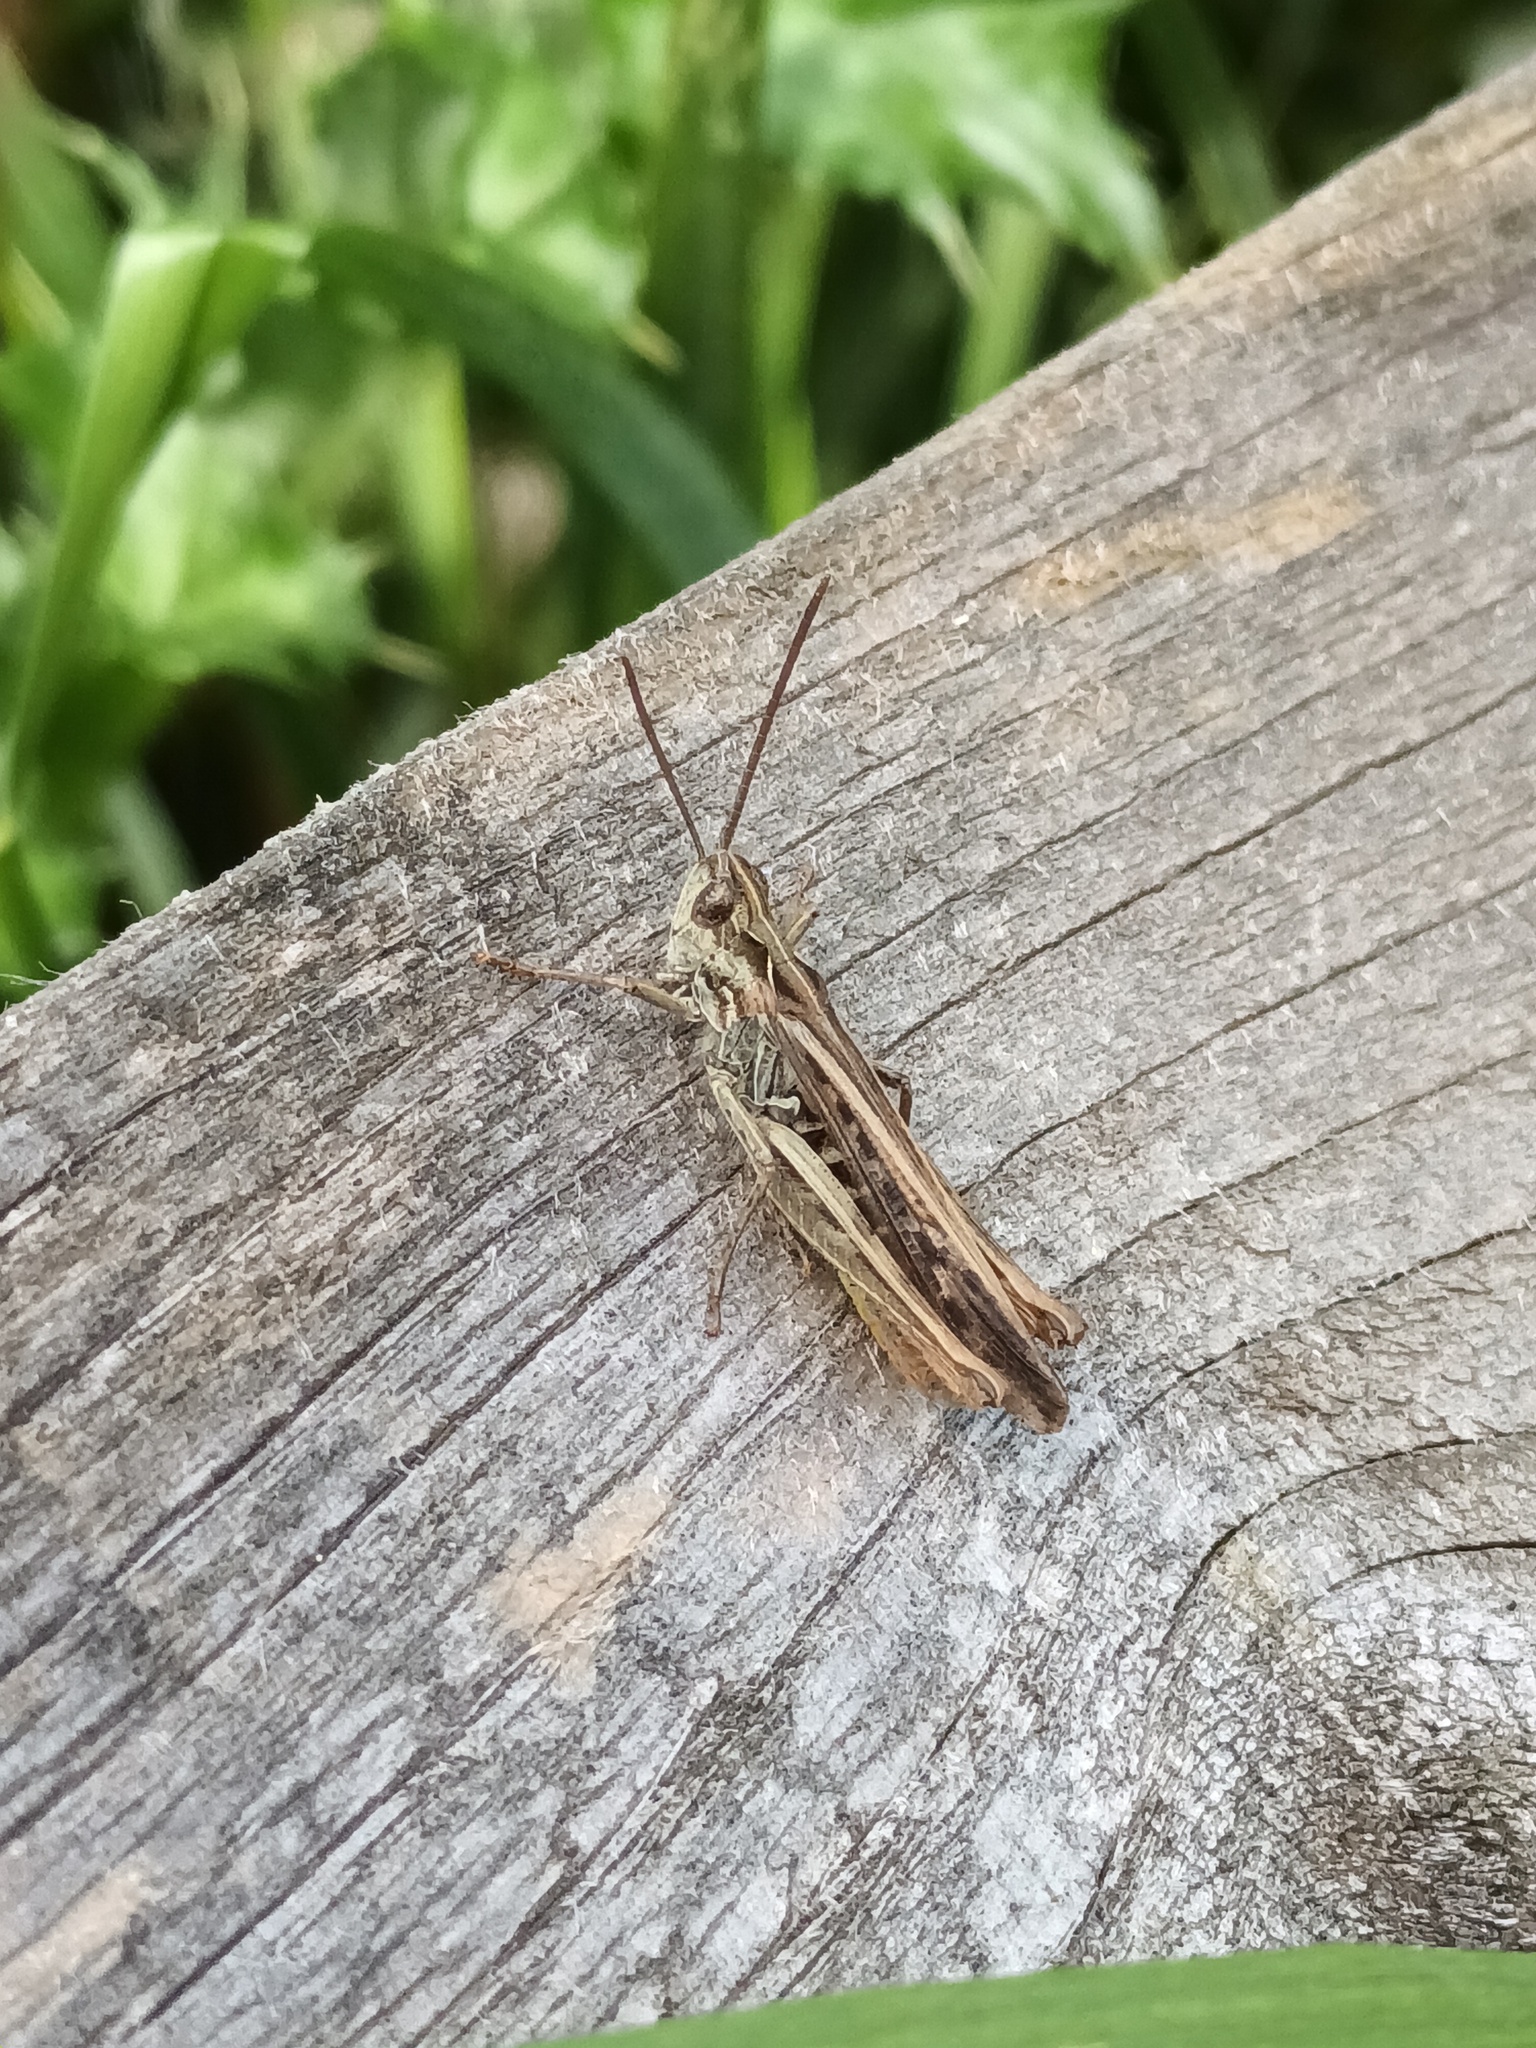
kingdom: Animalia
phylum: Arthropoda
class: Insecta
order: Orthoptera
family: Acrididae
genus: Chorthippus
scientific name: Chorthippus brunneus
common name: Field grasshopper
